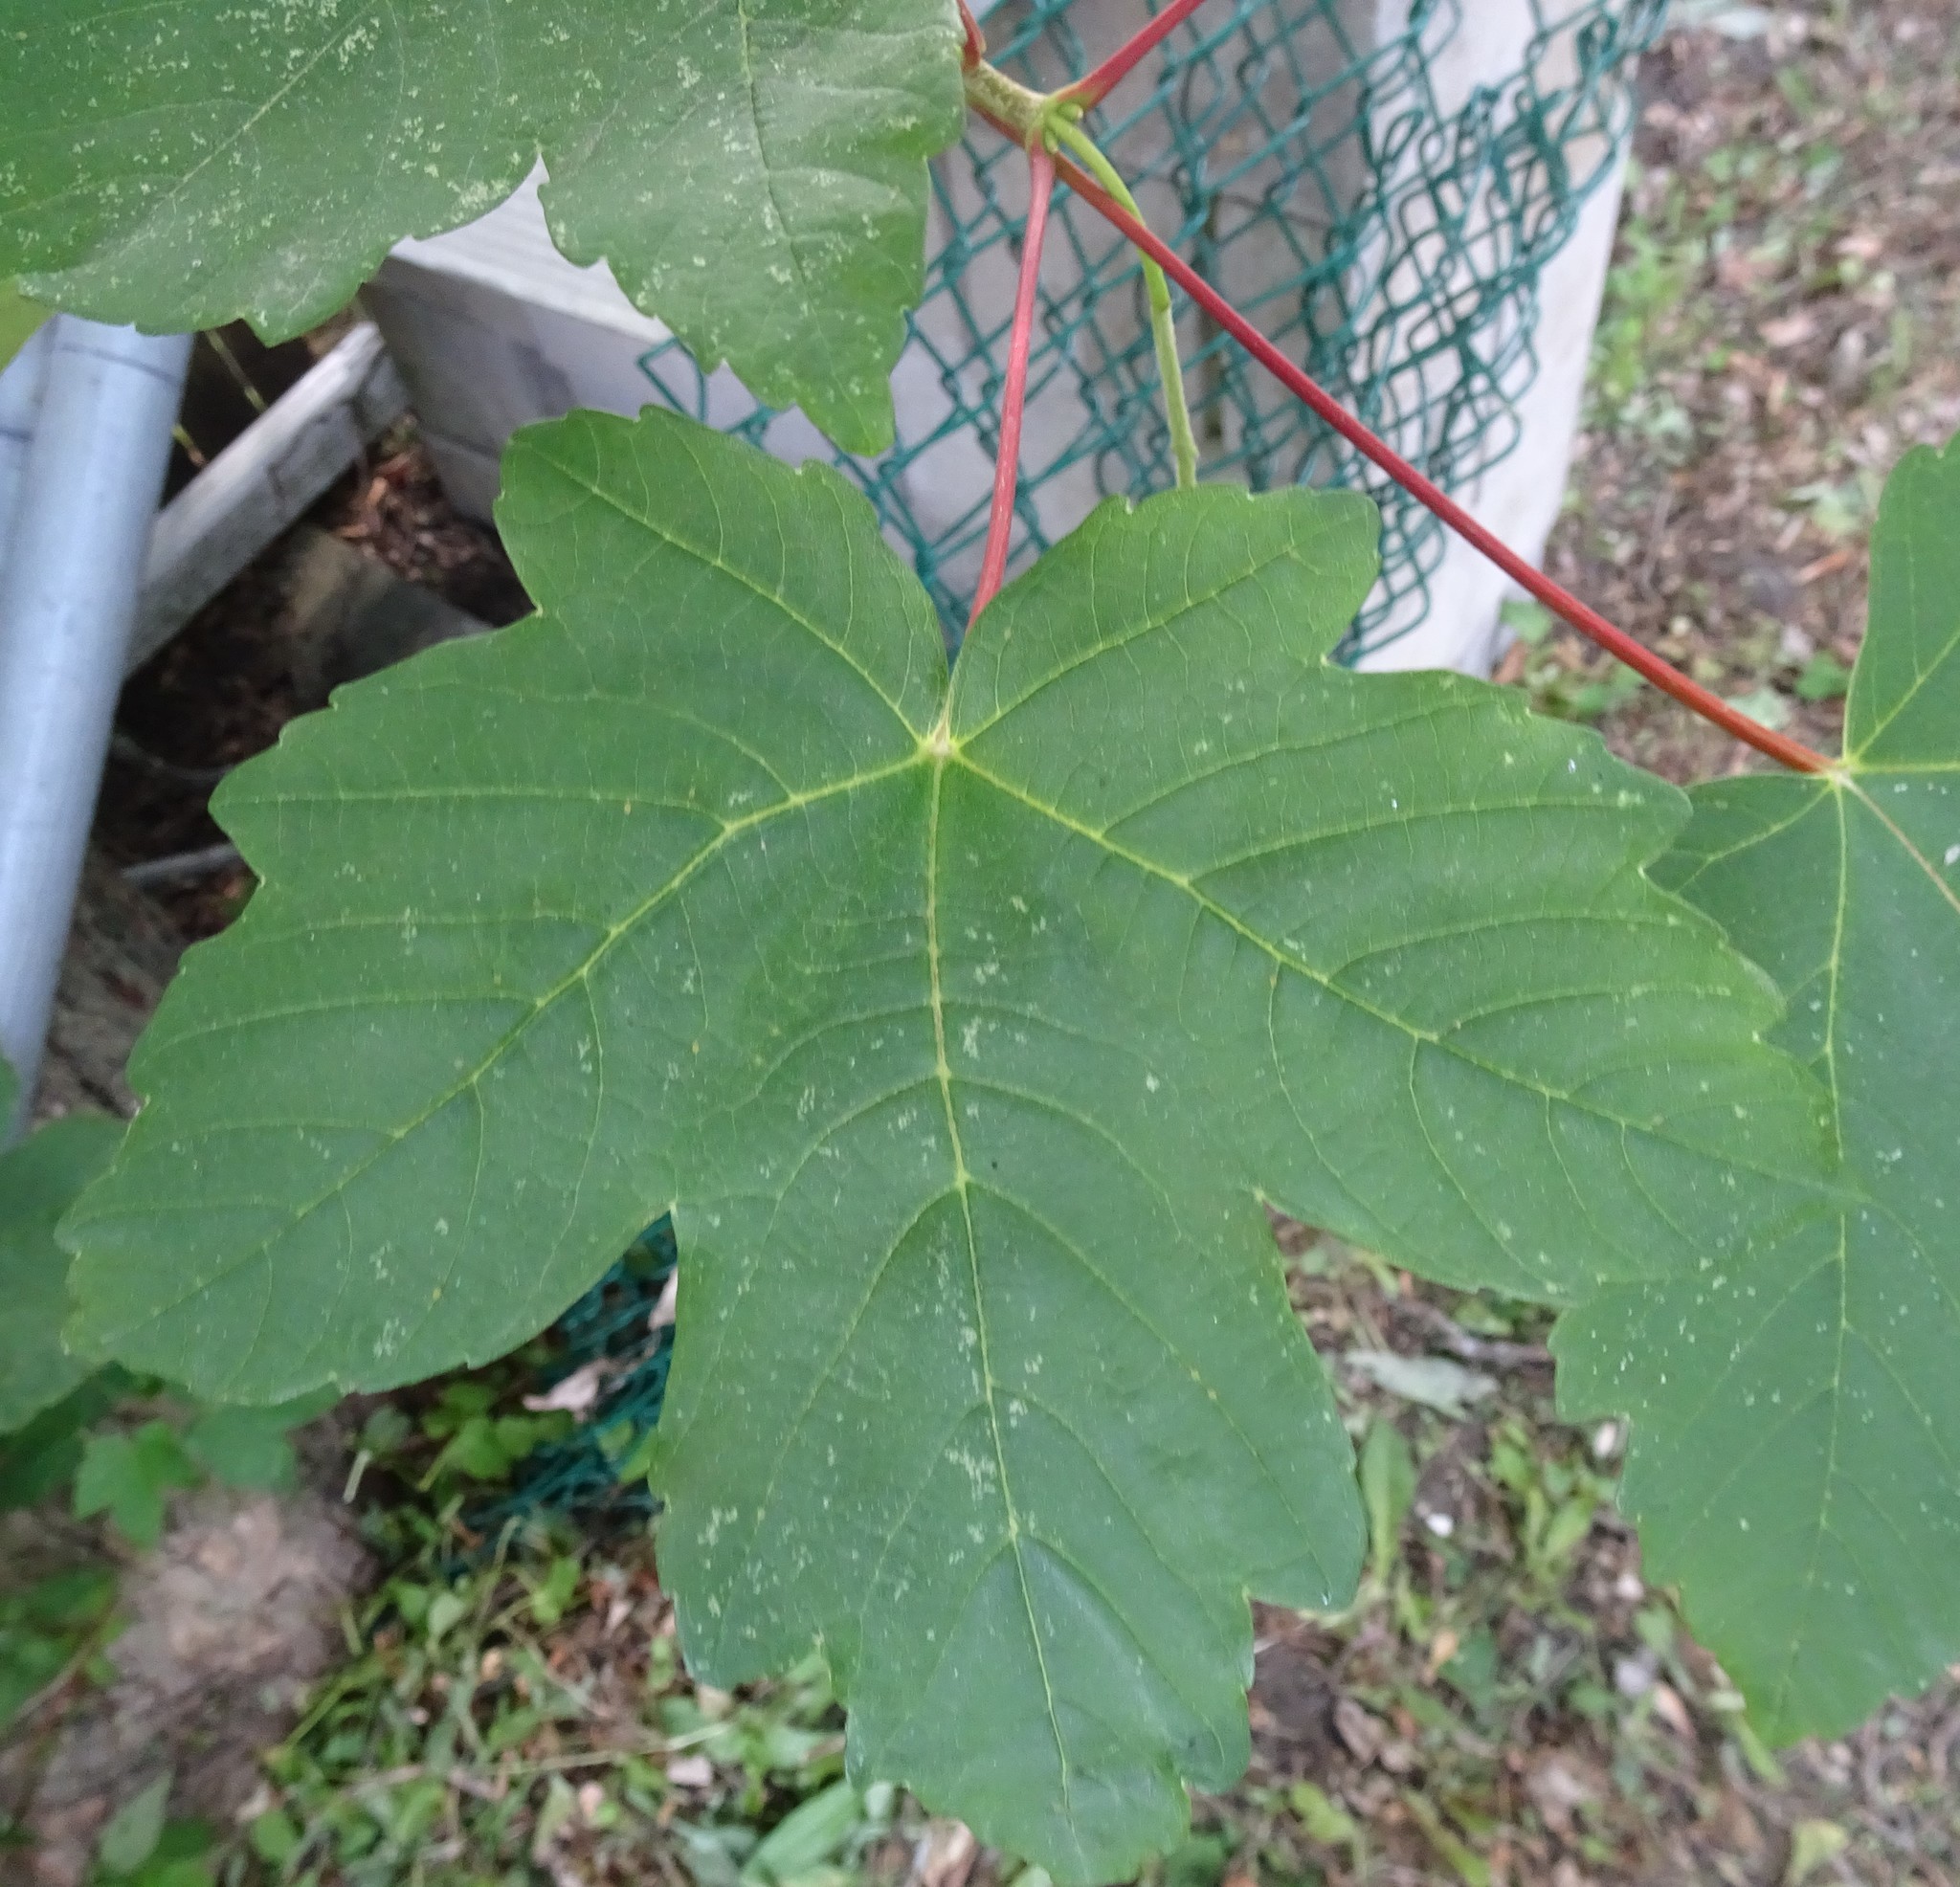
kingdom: Plantae
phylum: Tracheophyta
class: Magnoliopsida
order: Sapindales
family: Sapindaceae
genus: Acer
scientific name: Acer pseudoplatanus
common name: Sycamore
